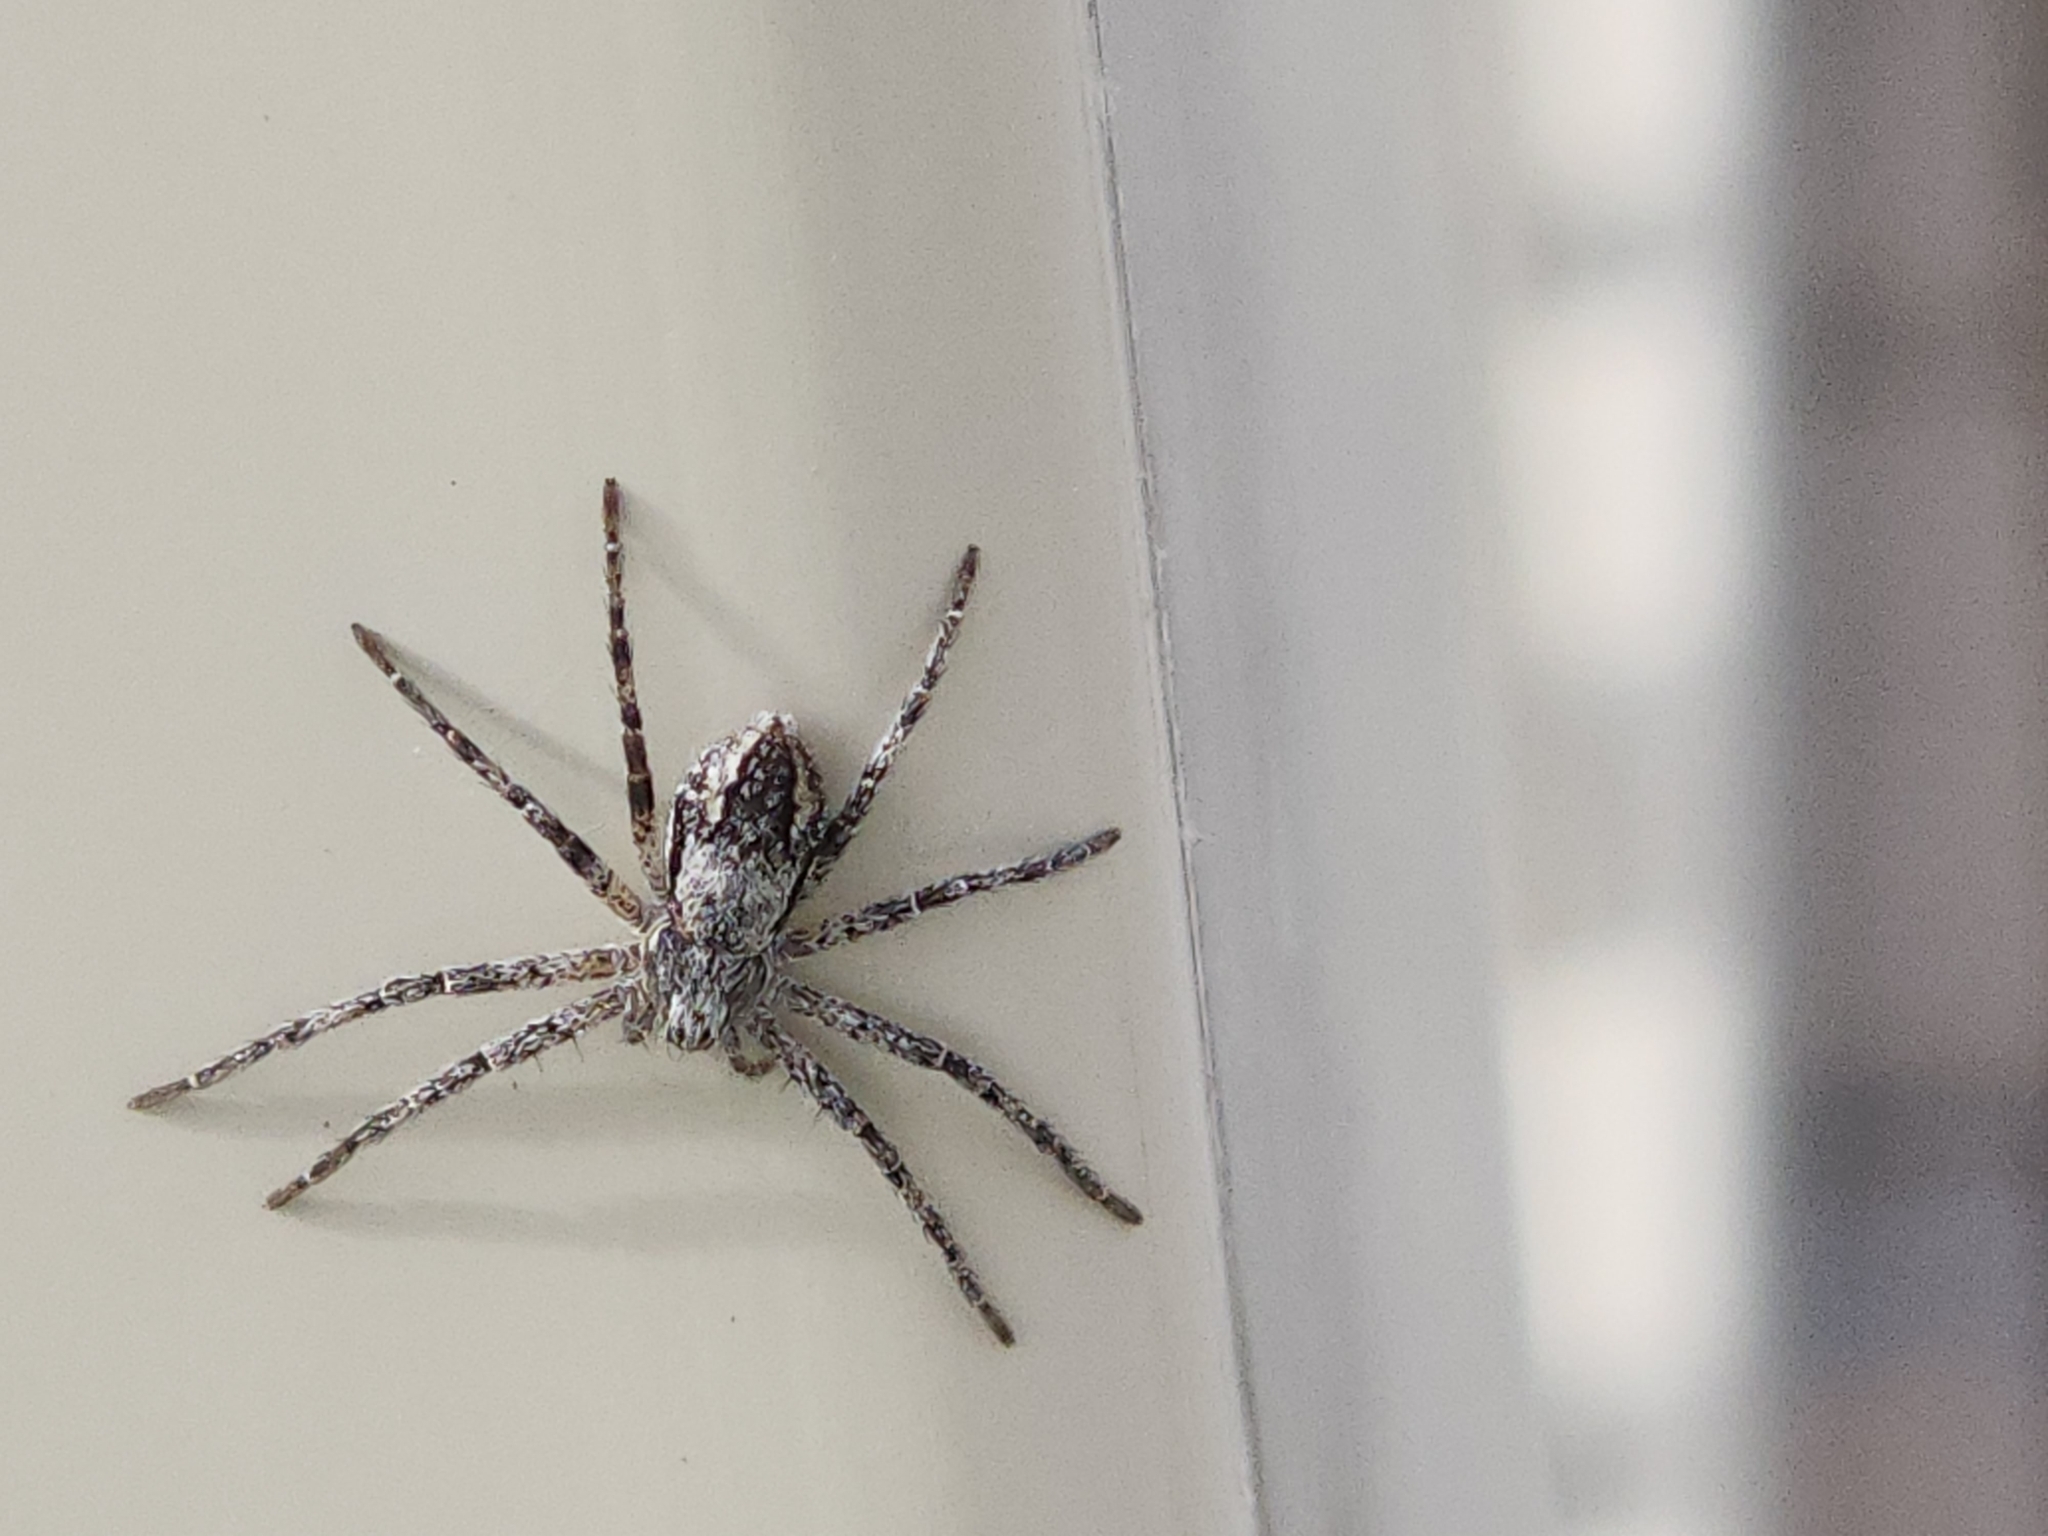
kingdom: Animalia
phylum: Arthropoda
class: Arachnida
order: Araneae
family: Philodromidae
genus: Apollophanes
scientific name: Apollophanes margareta
